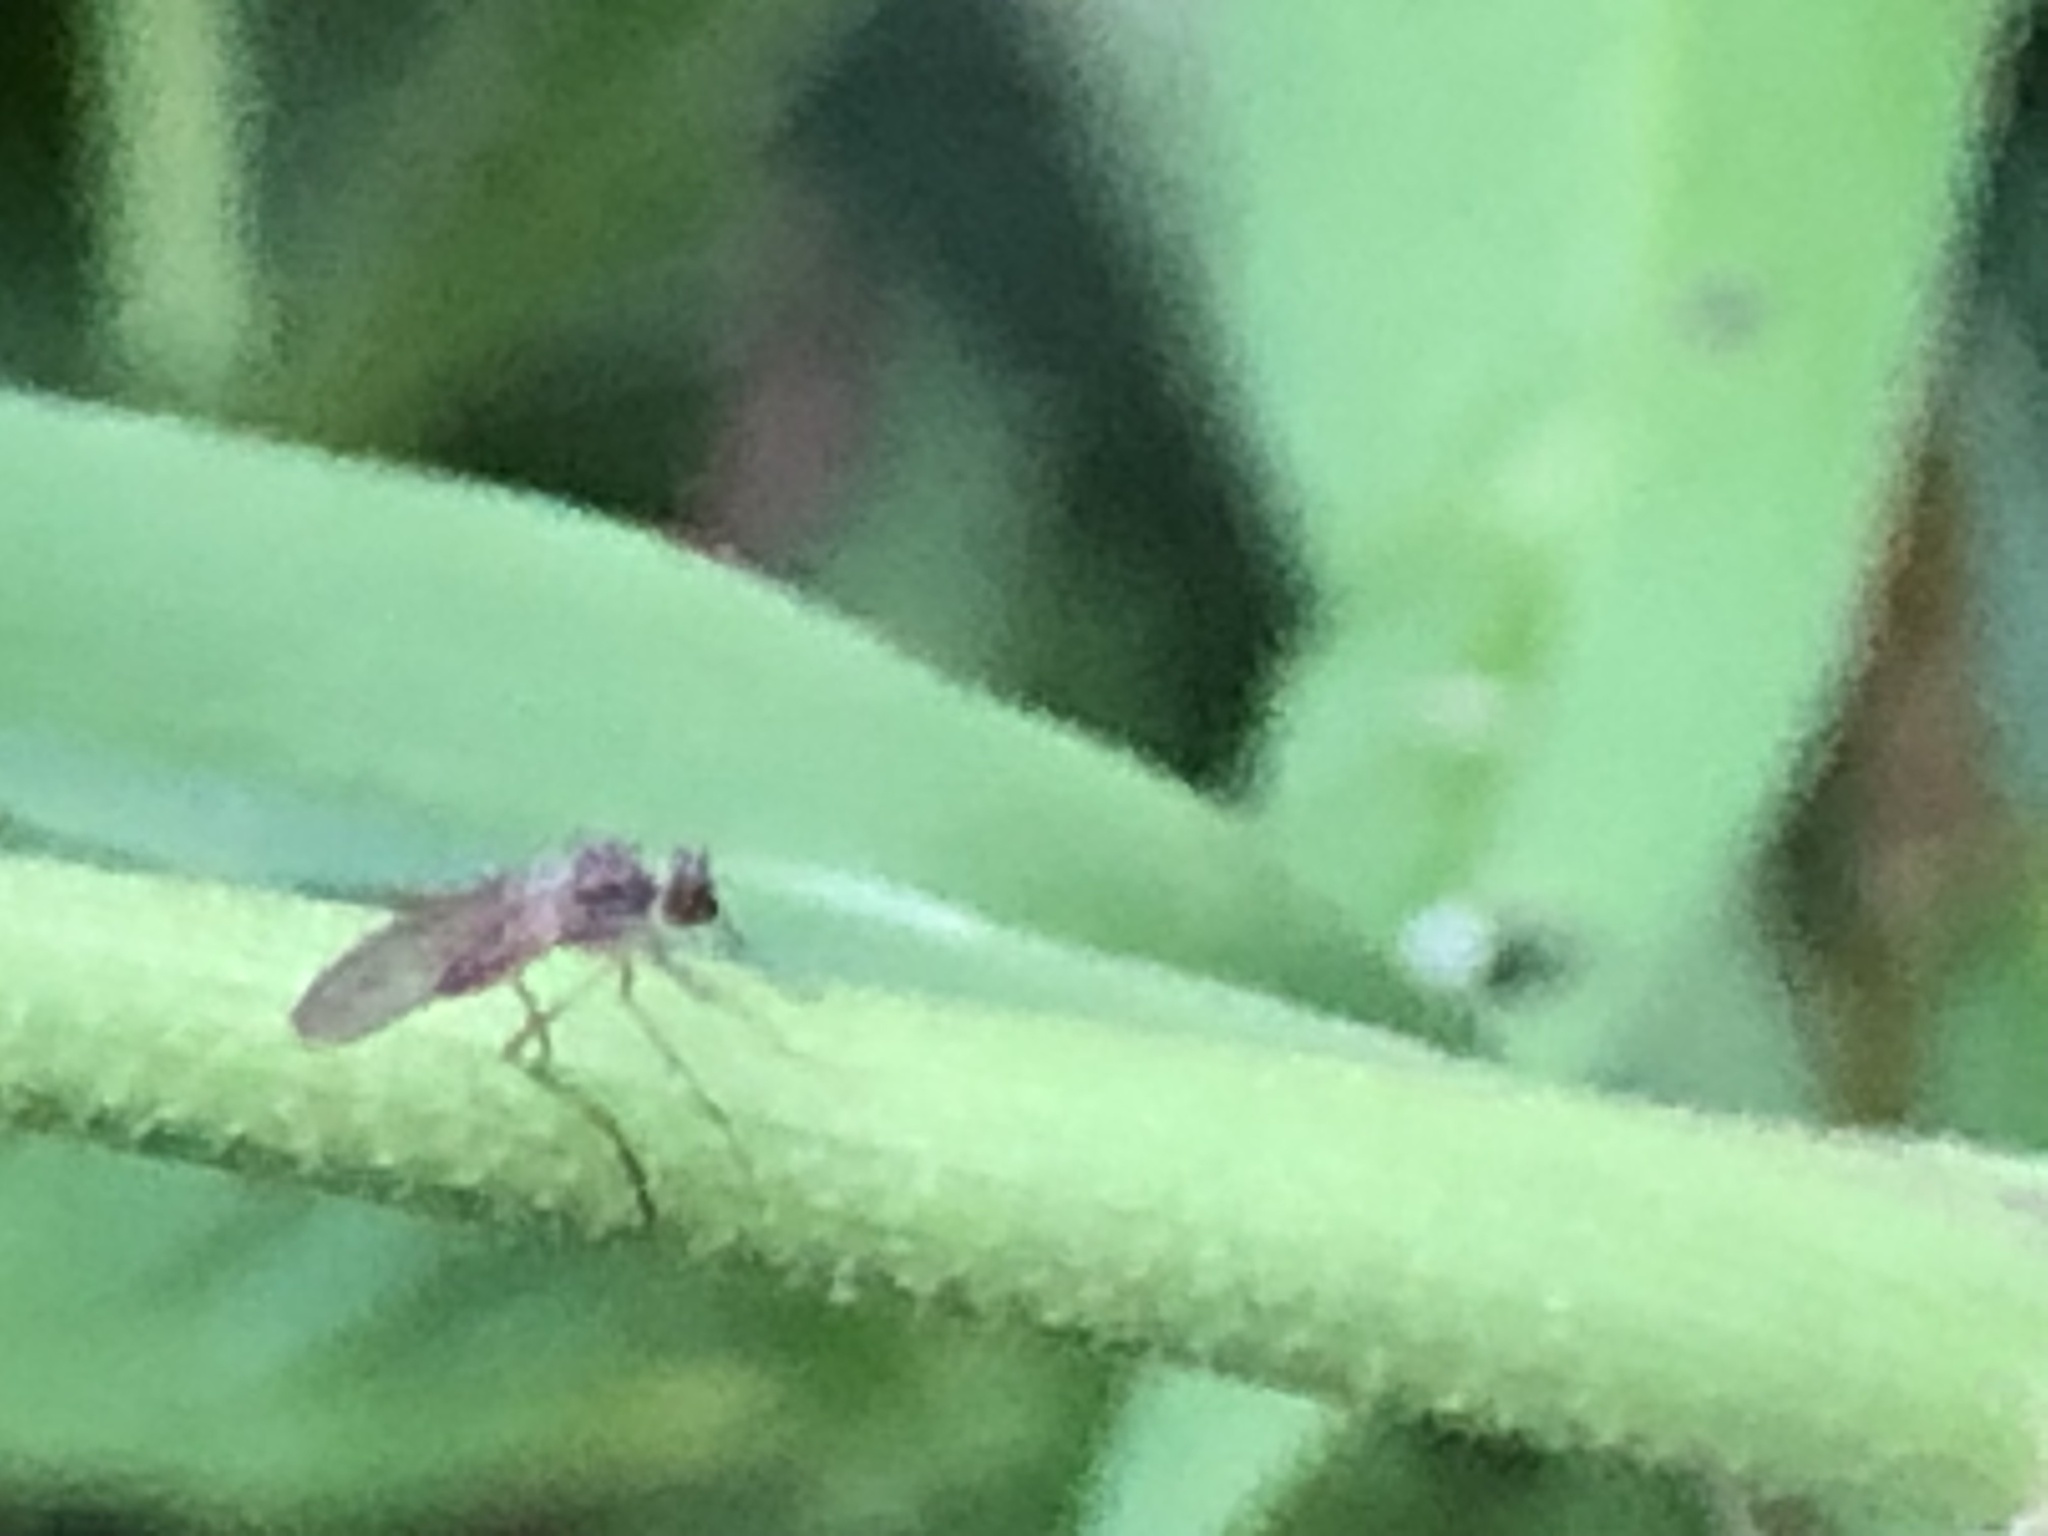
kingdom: Animalia
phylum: Arthropoda
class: Insecta
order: Diptera
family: Dolichopodidae
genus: Sympycnus
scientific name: Sympycnus lineatus
